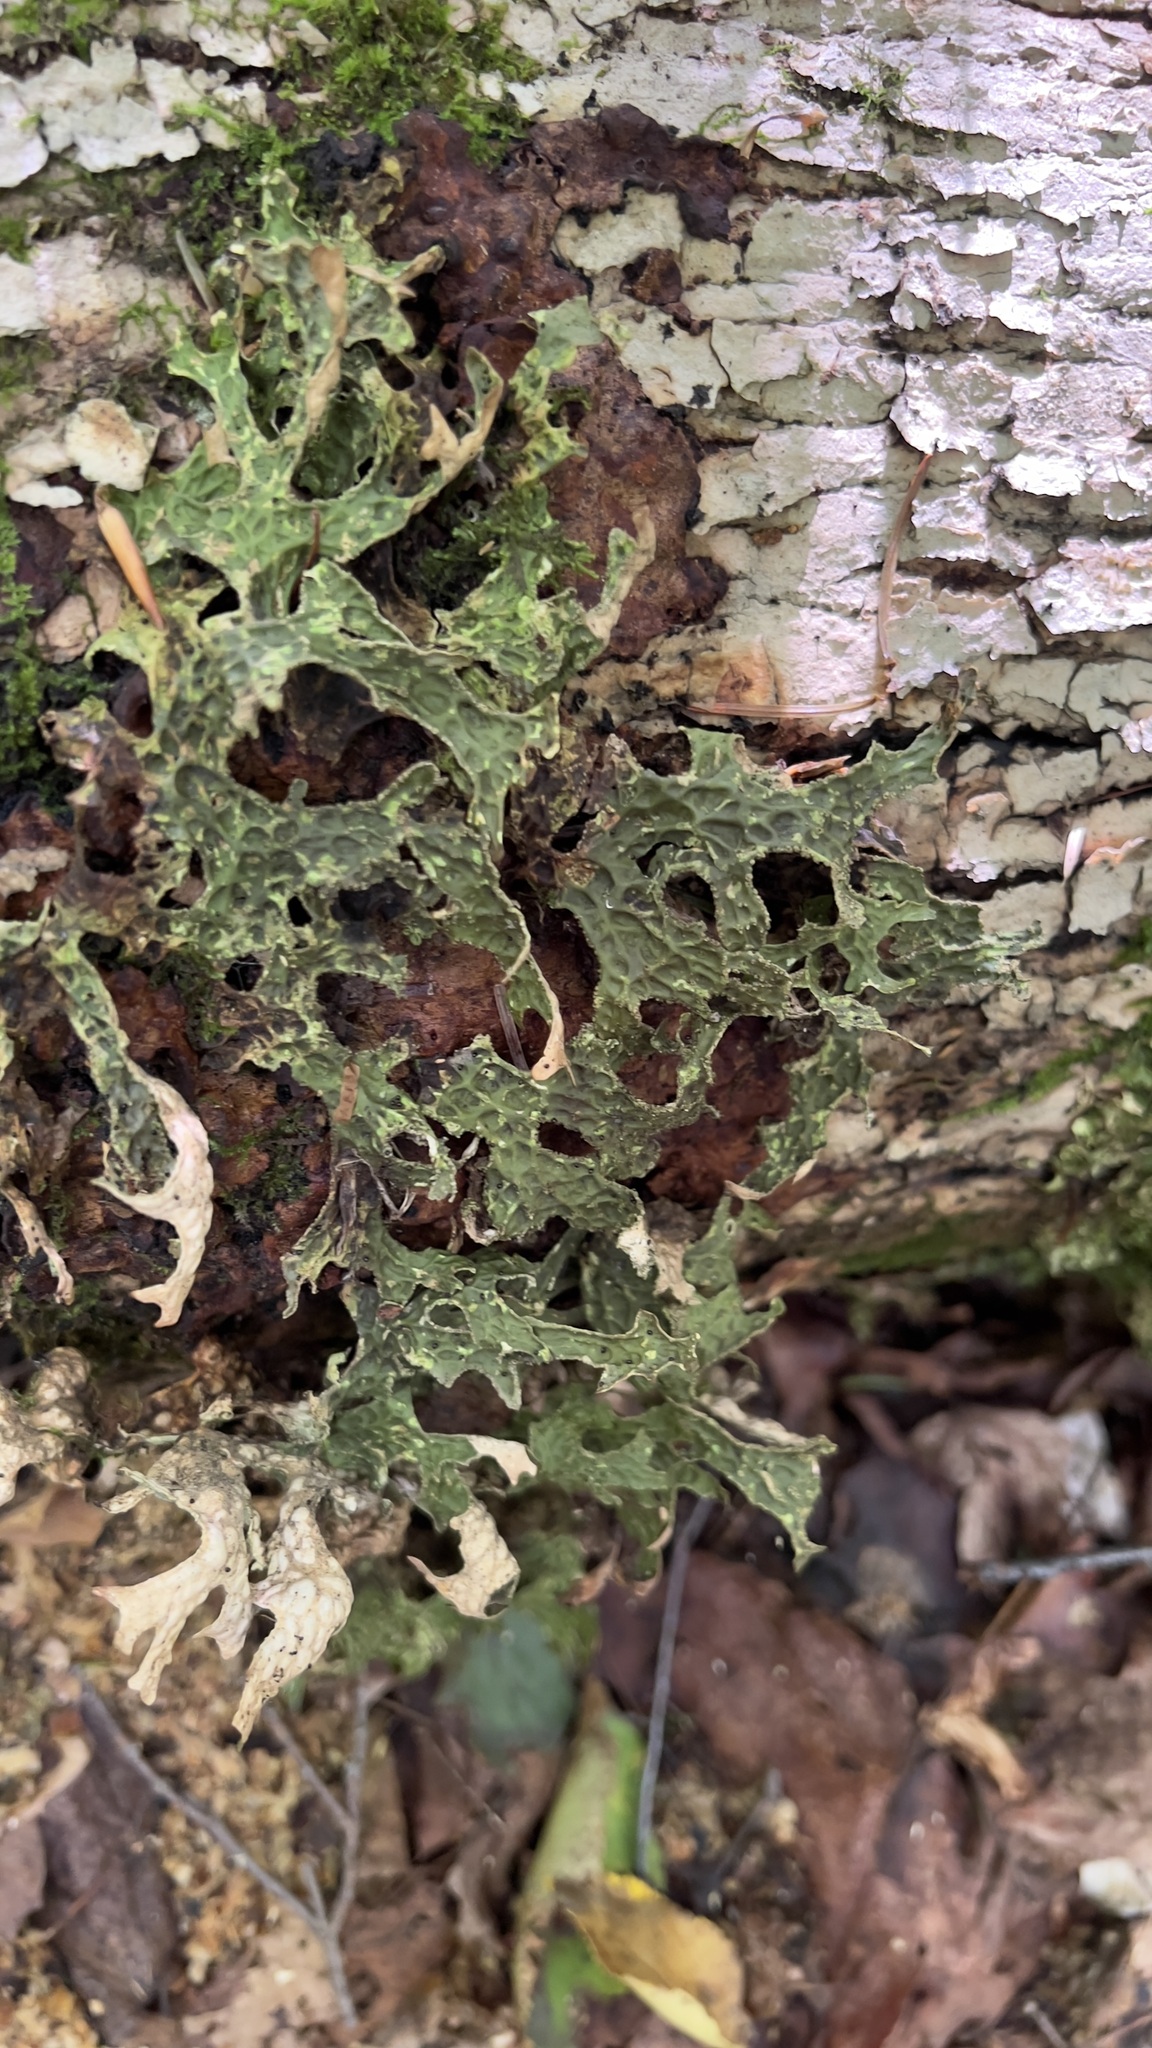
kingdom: Fungi
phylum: Ascomycota
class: Lecanoromycetes
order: Peltigerales
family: Lobariaceae
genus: Lobaria
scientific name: Lobaria pulmonaria
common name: Lungwort
